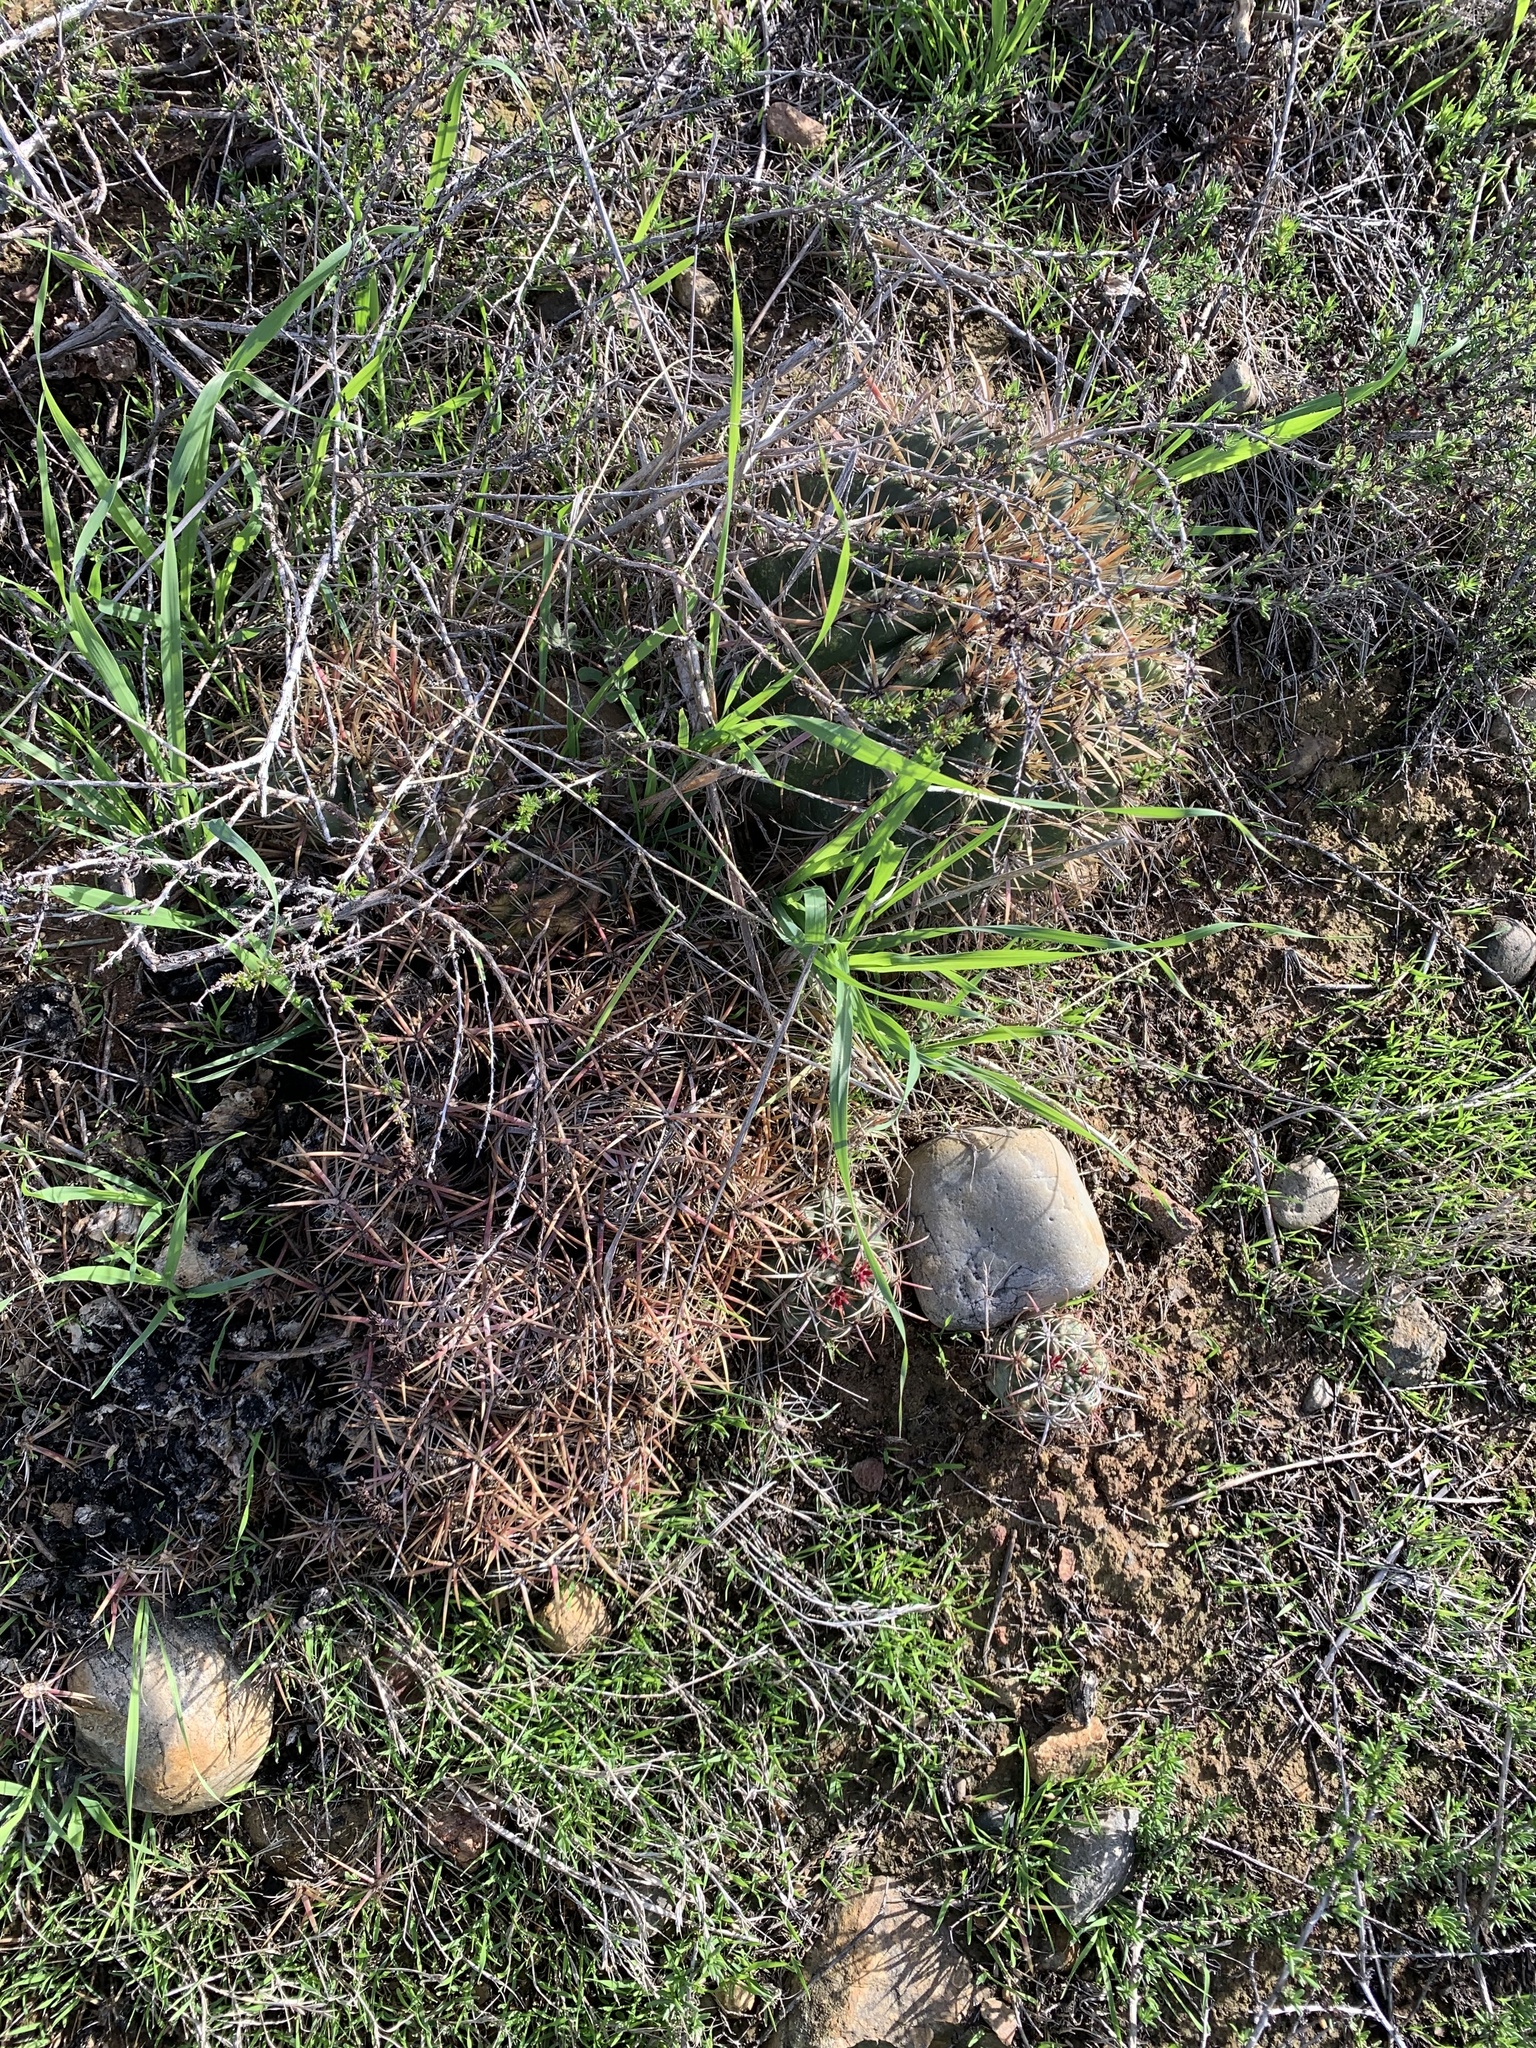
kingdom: Plantae
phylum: Tracheophyta
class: Magnoliopsida
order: Caryophyllales
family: Cactaceae
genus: Ferocactus
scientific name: Ferocactus viridescens
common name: San diego barrel cactus
